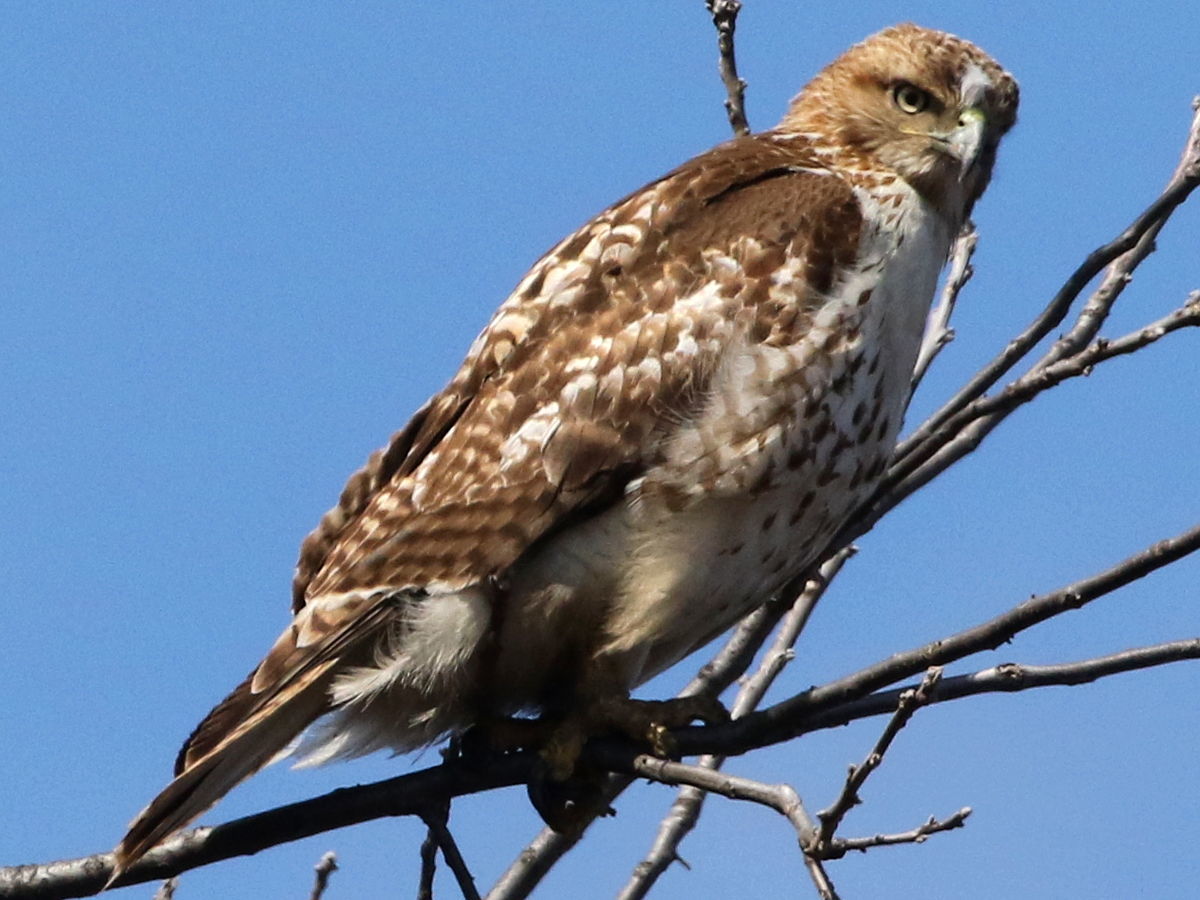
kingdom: Animalia
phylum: Chordata
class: Aves
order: Accipitriformes
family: Accipitridae
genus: Buteo
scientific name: Buteo jamaicensis
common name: Red-tailed hawk
